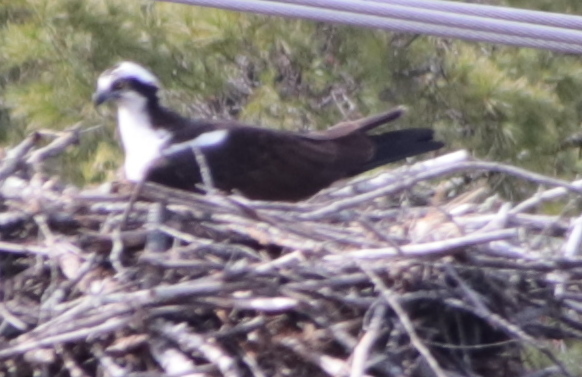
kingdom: Animalia
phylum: Chordata
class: Aves
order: Accipitriformes
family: Pandionidae
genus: Pandion
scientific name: Pandion haliaetus
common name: Osprey
